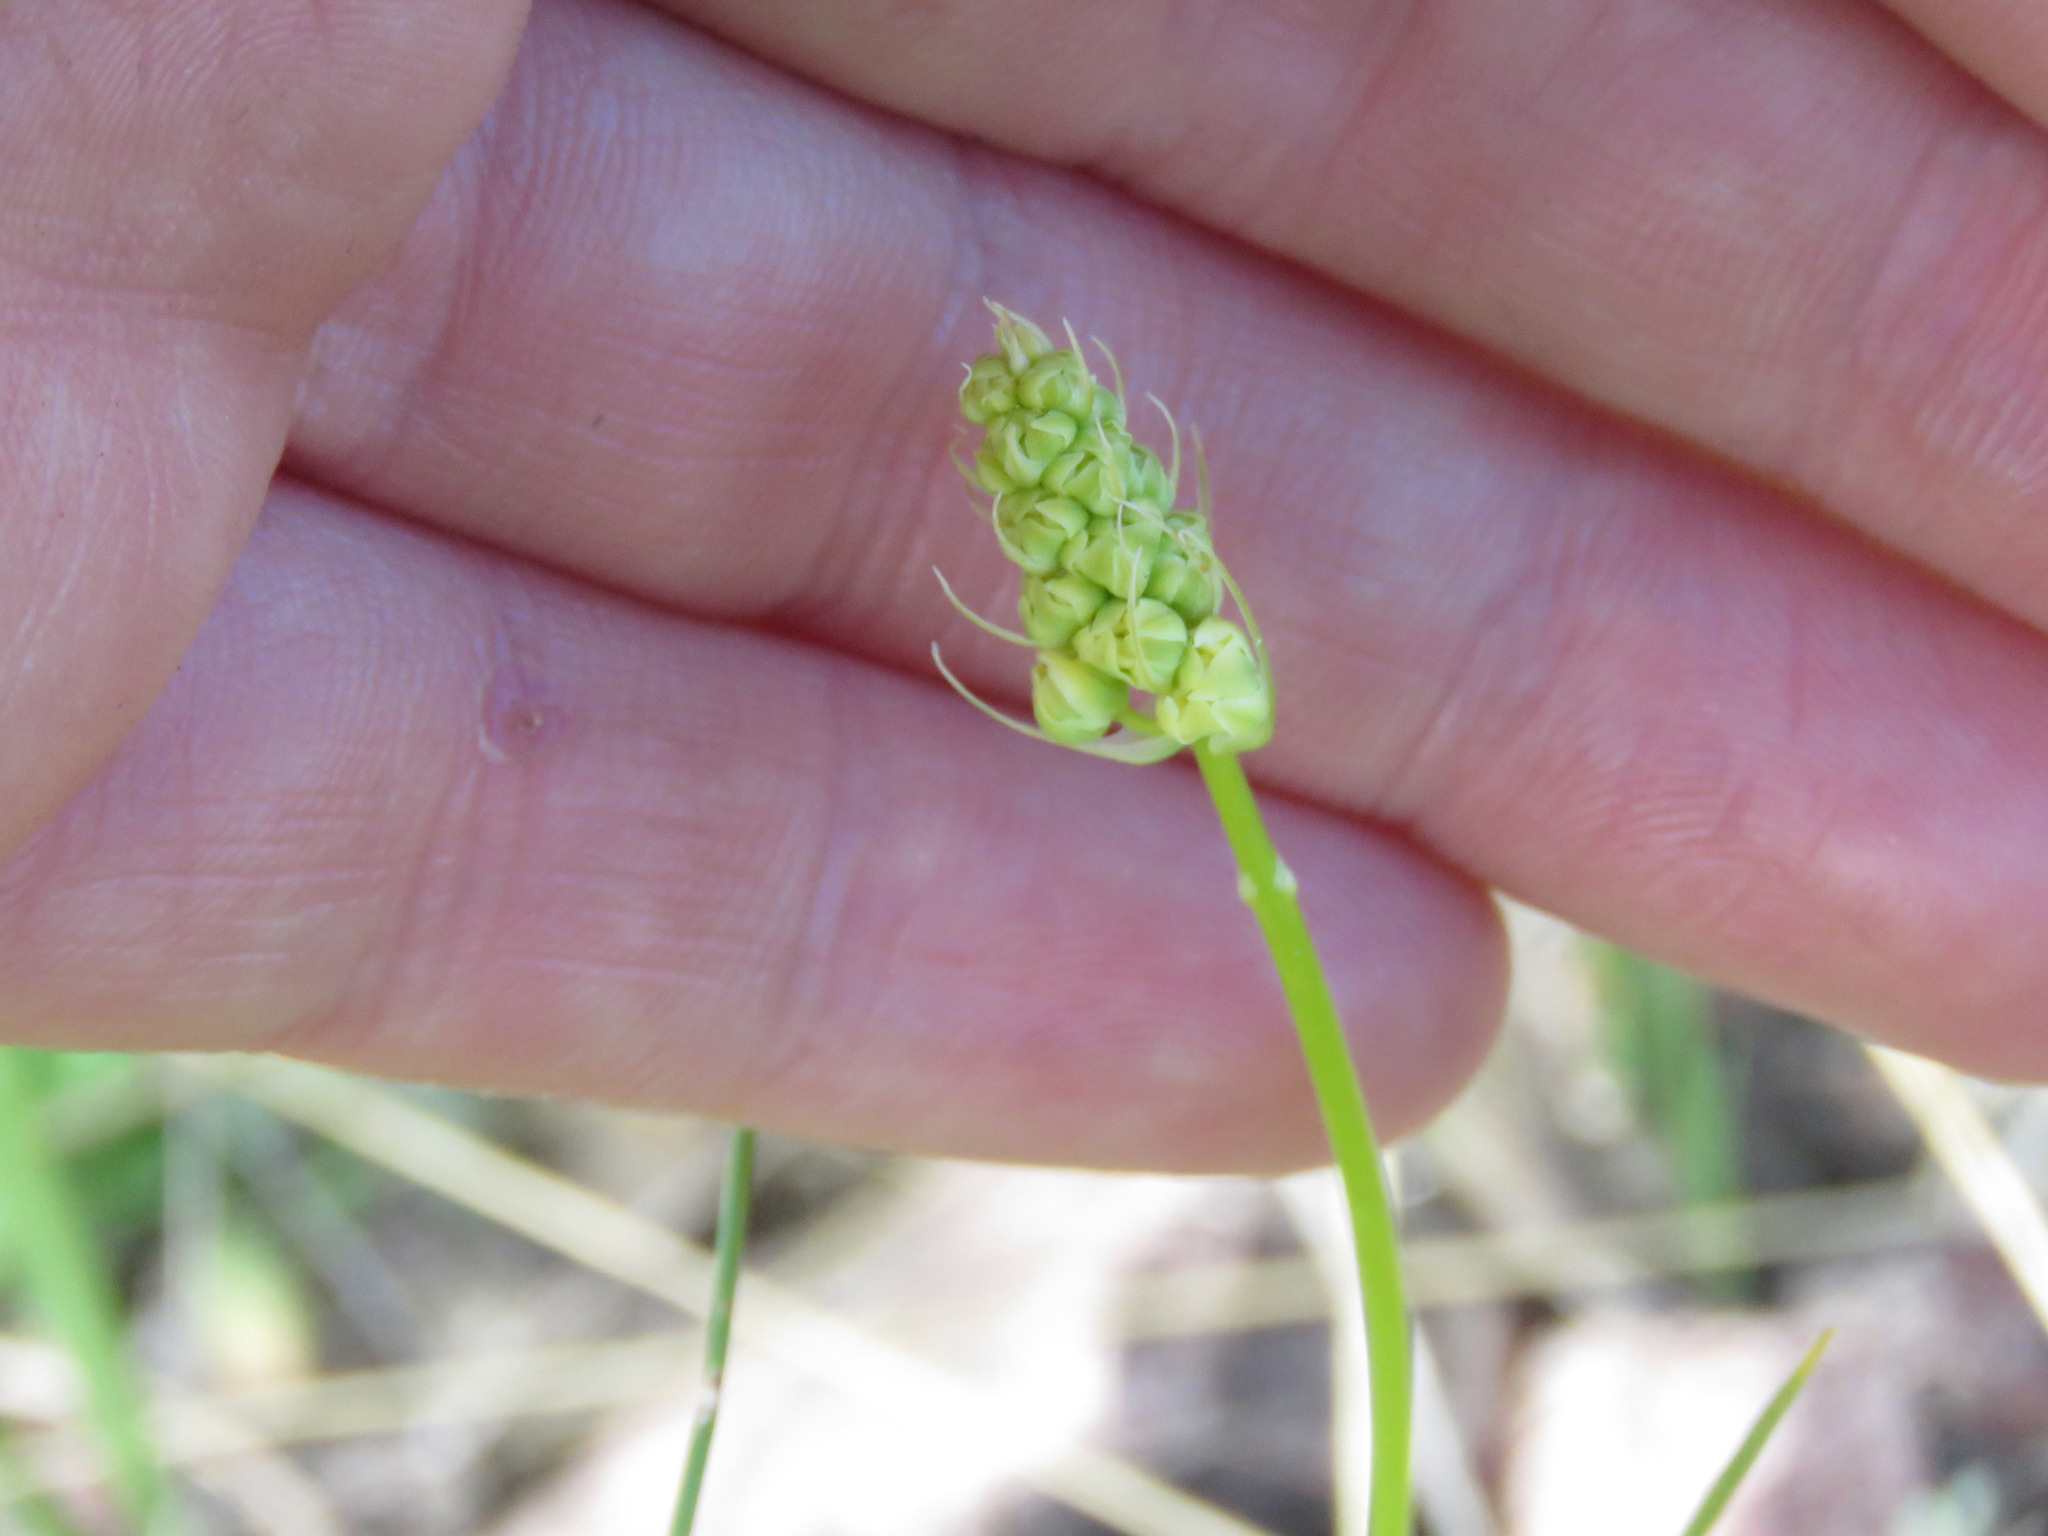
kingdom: Plantae
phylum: Tracheophyta
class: Liliopsida
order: Liliales
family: Melanthiaceae
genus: Toxicoscordion
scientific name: Toxicoscordion venenosum
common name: Meadow death camas
